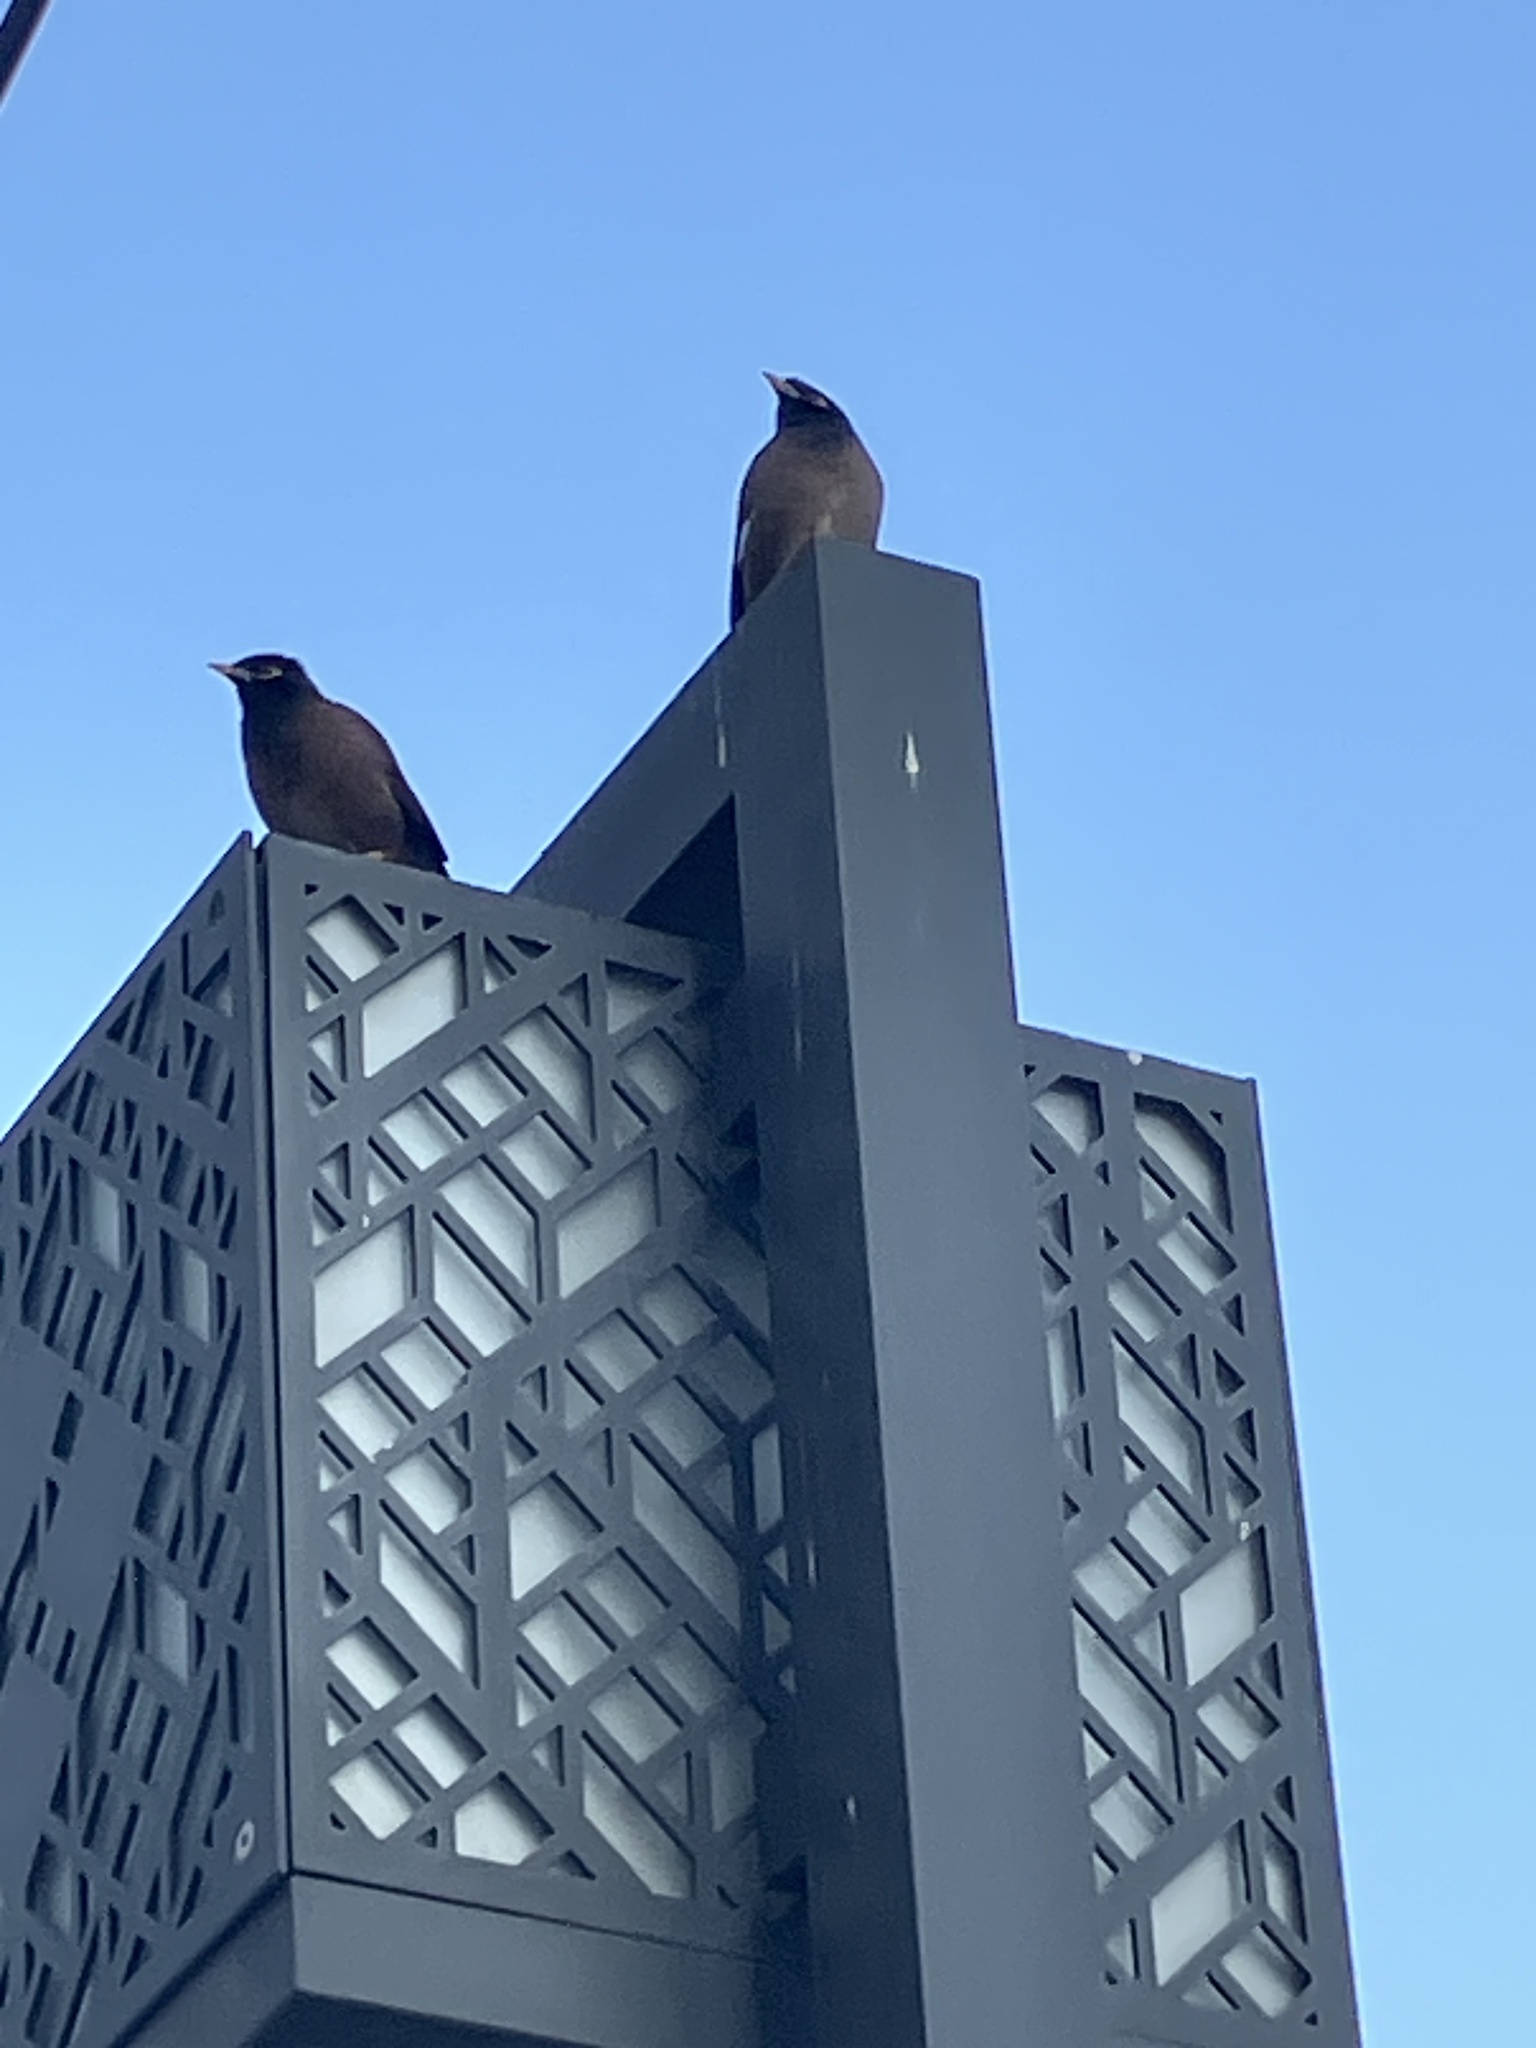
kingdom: Animalia
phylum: Chordata
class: Aves
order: Passeriformes
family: Sturnidae
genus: Acridotheres
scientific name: Acridotheres tristis
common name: Common myna
